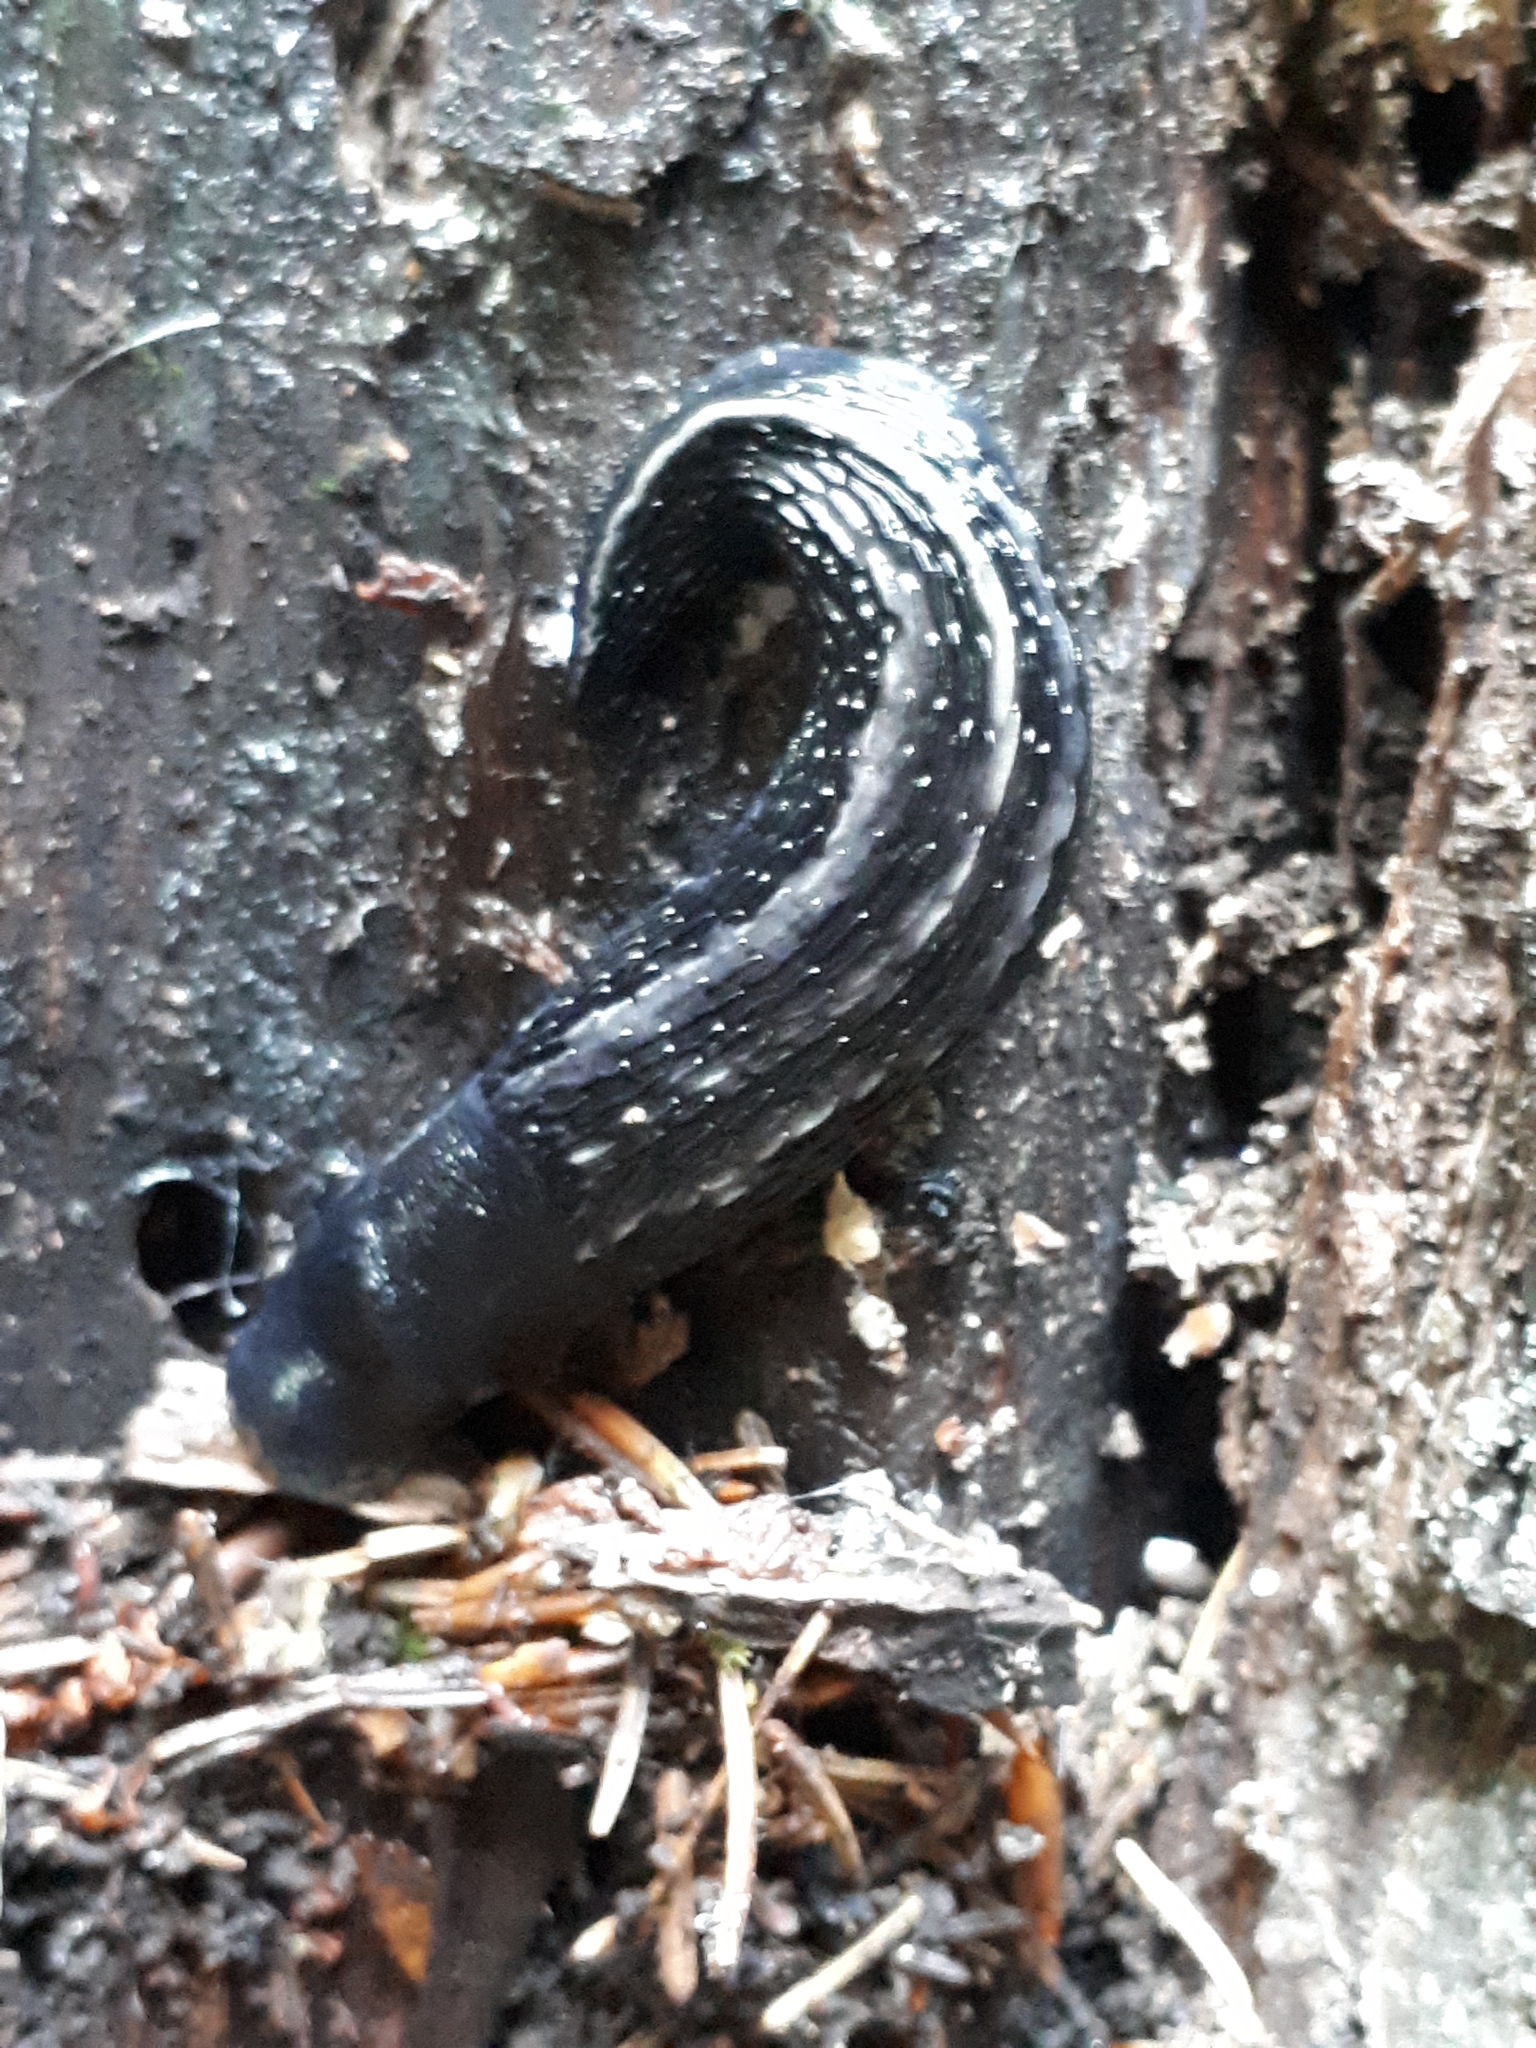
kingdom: Animalia
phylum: Mollusca
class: Gastropoda
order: Stylommatophora
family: Limacidae
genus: Limax
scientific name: Limax cinereoniger
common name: Ash-black slug
